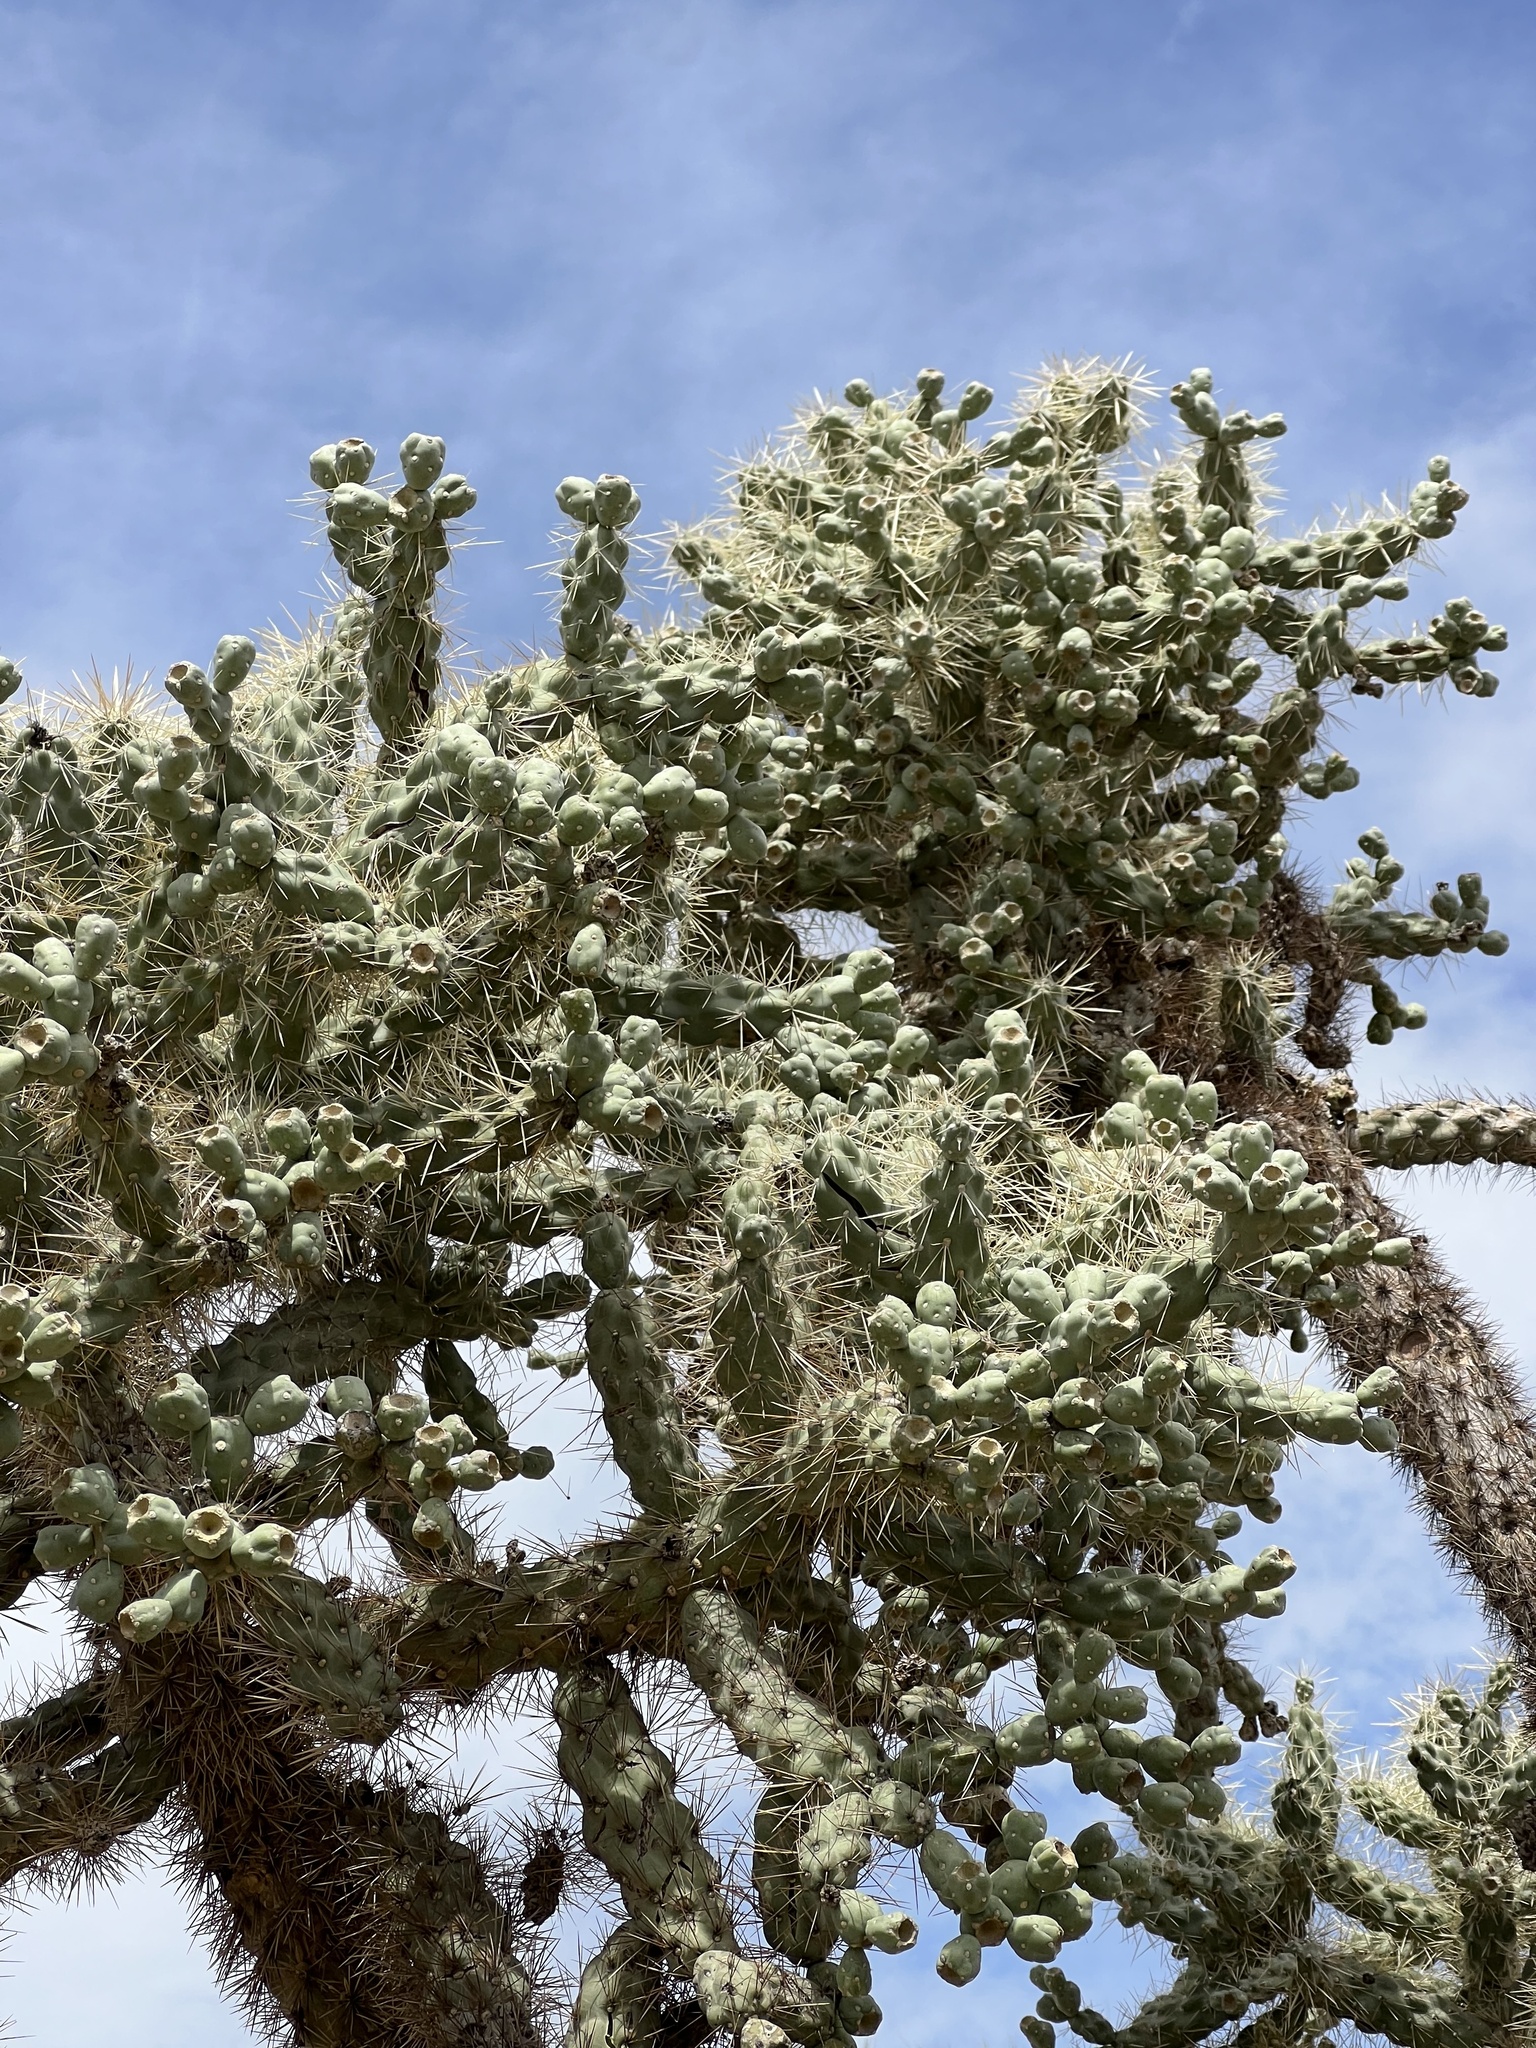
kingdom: Plantae
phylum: Tracheophyta
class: Magnoliopsida
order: Caryophyllales
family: Cactaceae
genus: Cylindropuntia
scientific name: Cylindropuntia fulgida
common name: Jumping cholla
